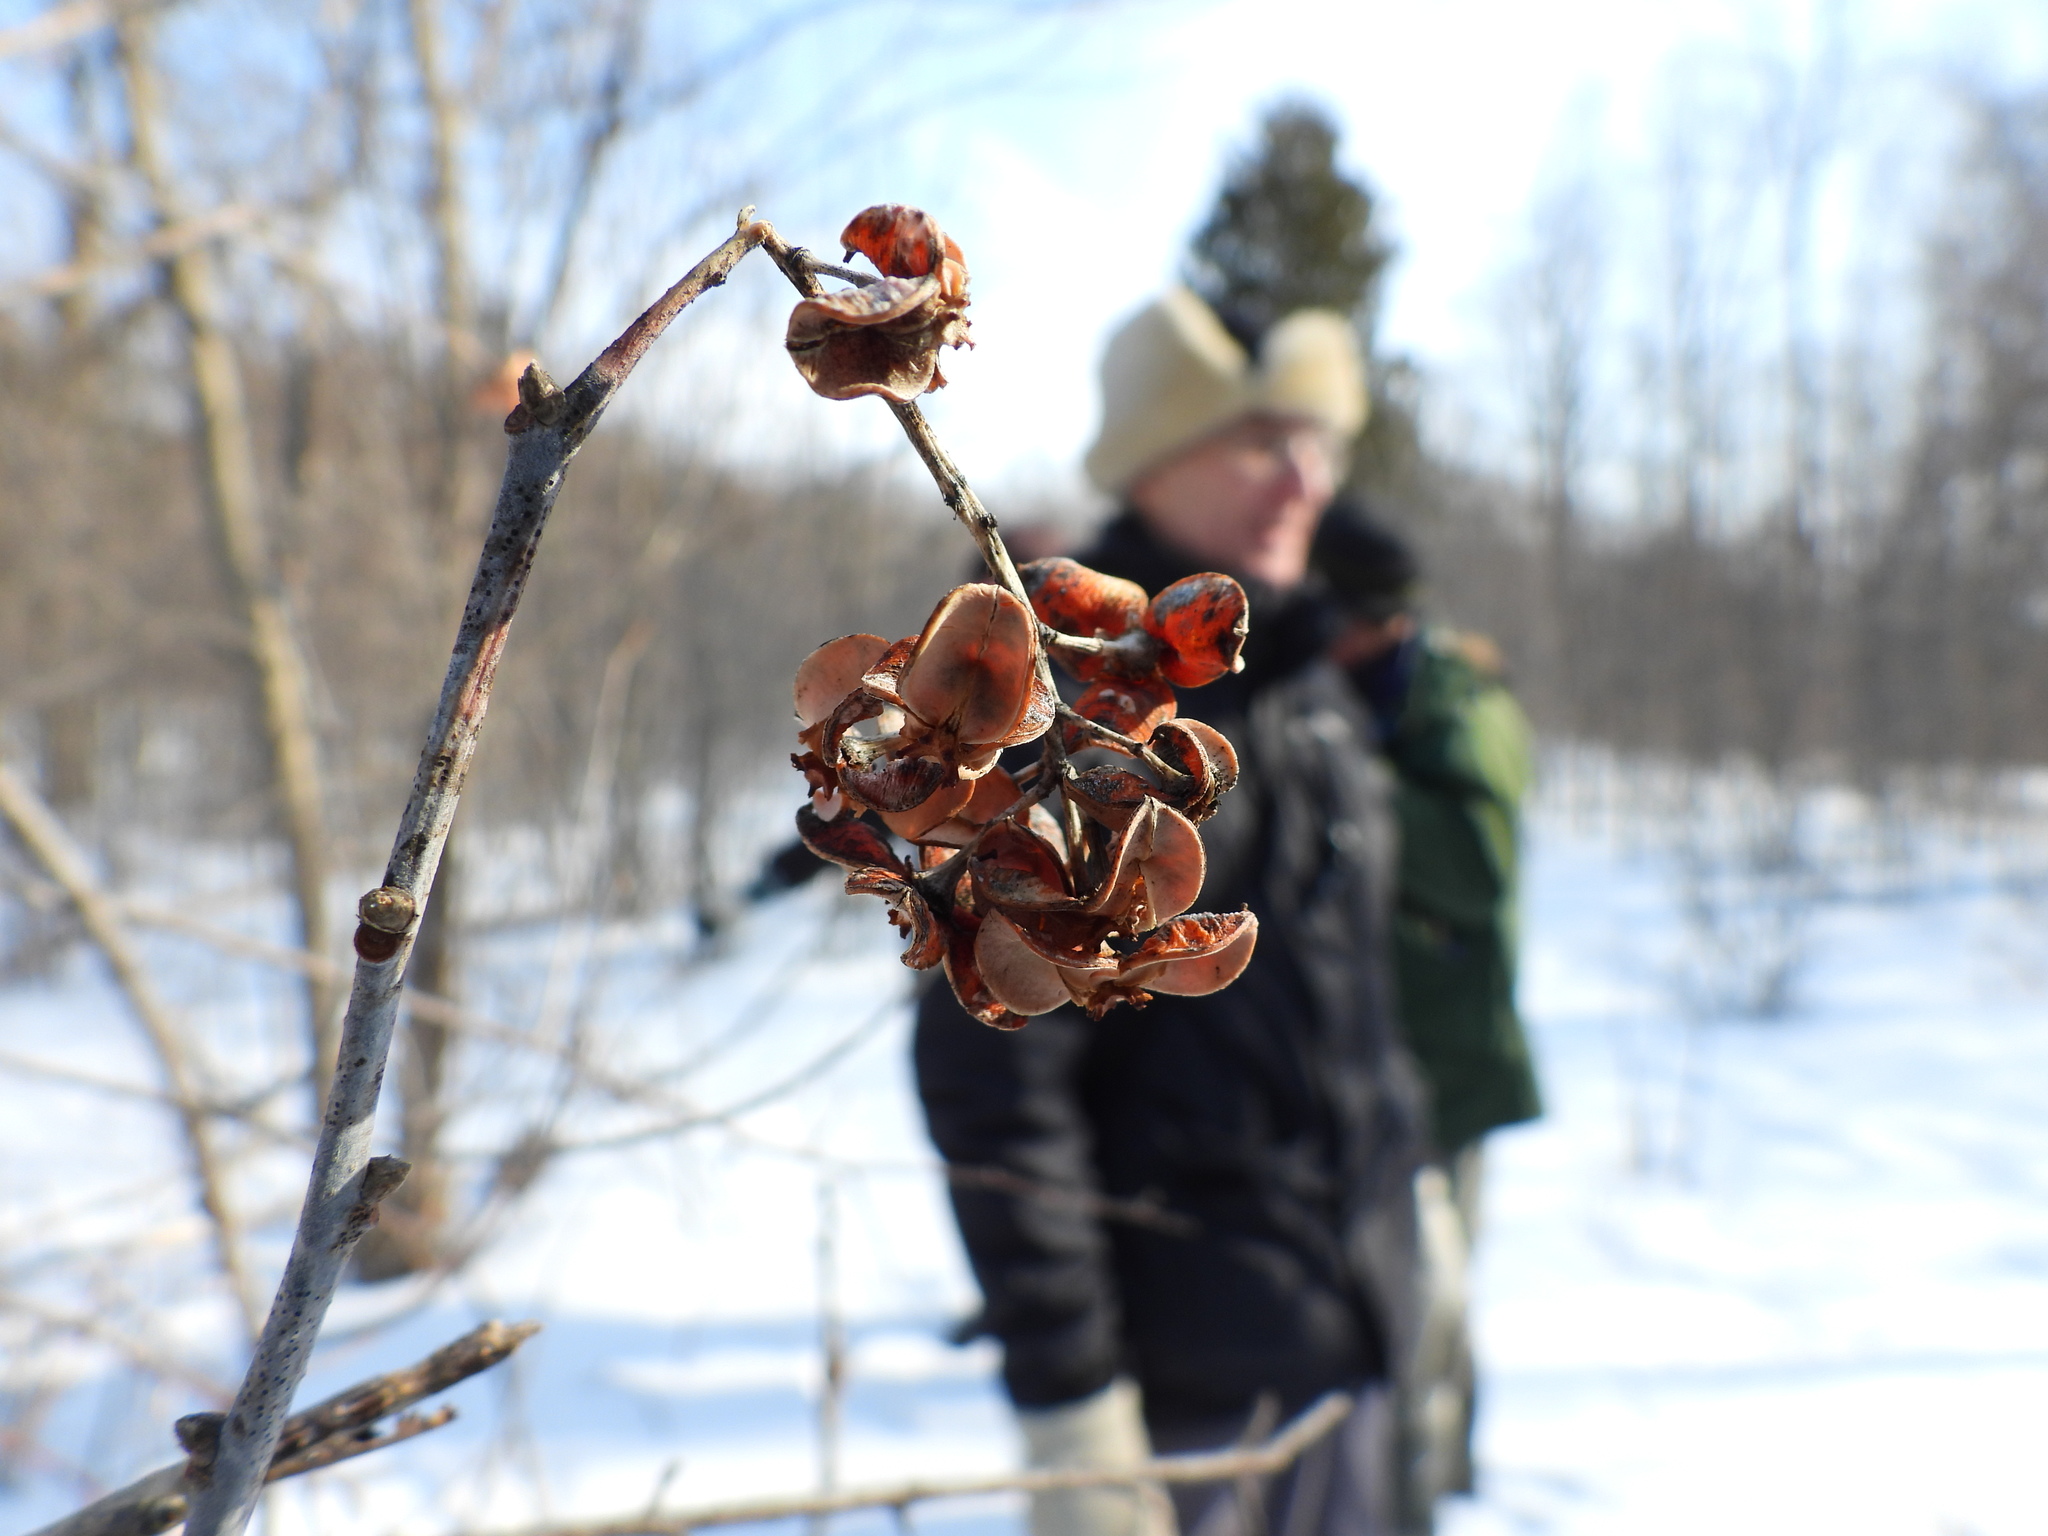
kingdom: Plantae
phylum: Tracheophyta
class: Magnoliopsida
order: Celastrales
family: Celastraceae
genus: Celastrus
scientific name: Celastrus scandens
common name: American bittersweet
